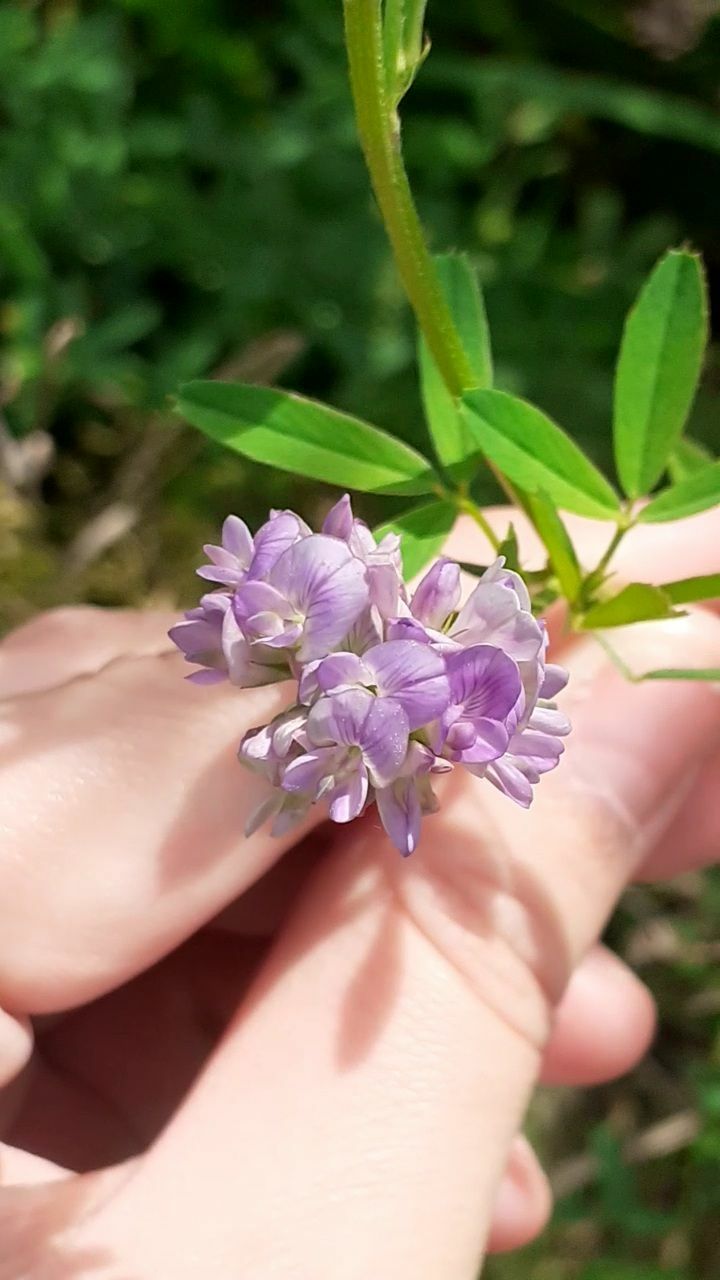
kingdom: Plantae
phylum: Tracheophyta
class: Magnoliopsida
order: Fabales
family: Fabaceae
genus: Medicago
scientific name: Medicago sativa
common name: Alfalfa
